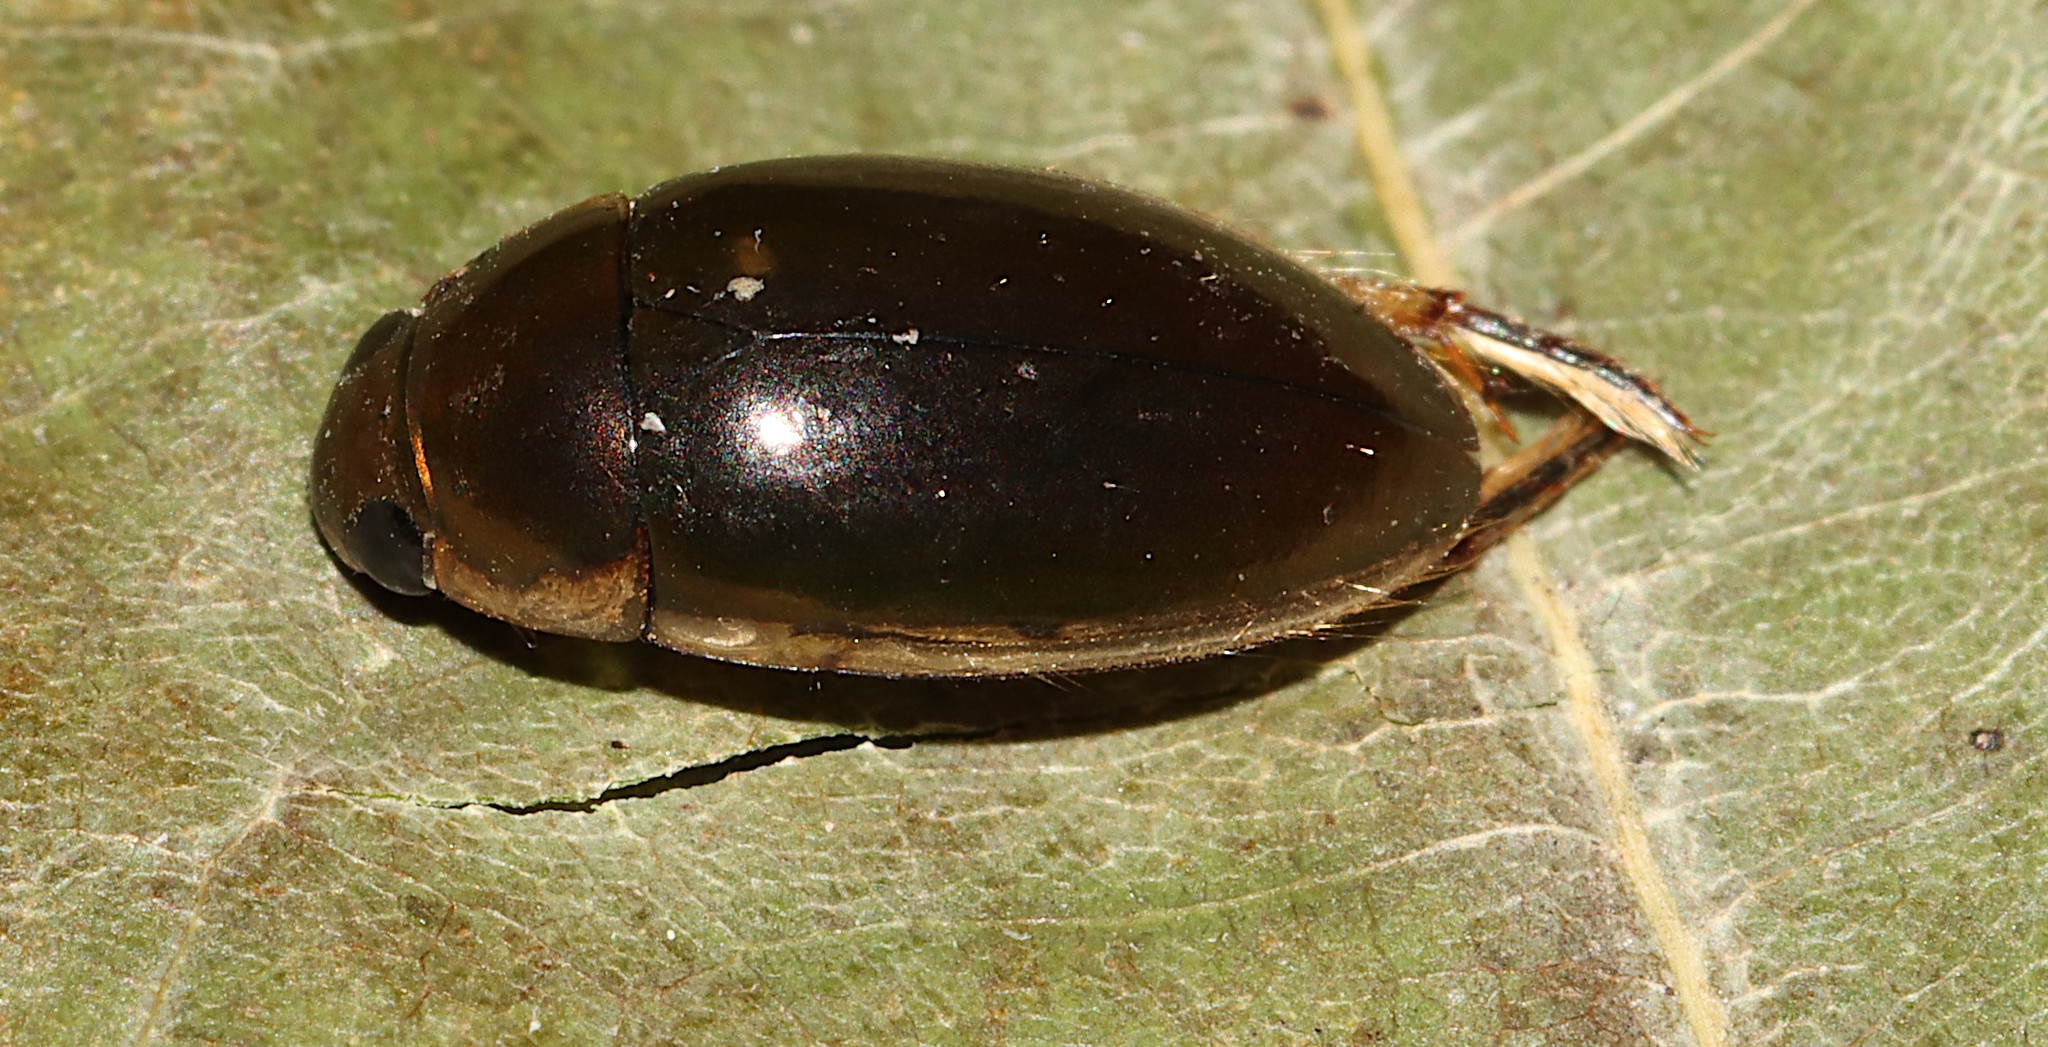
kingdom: Animalia
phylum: Arthropoda
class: Insecta
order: Coleoptera
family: Hydrophilidae
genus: Tropisternus
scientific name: Tropisternus lateralis
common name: Lateral-banded water scavenger beetle
